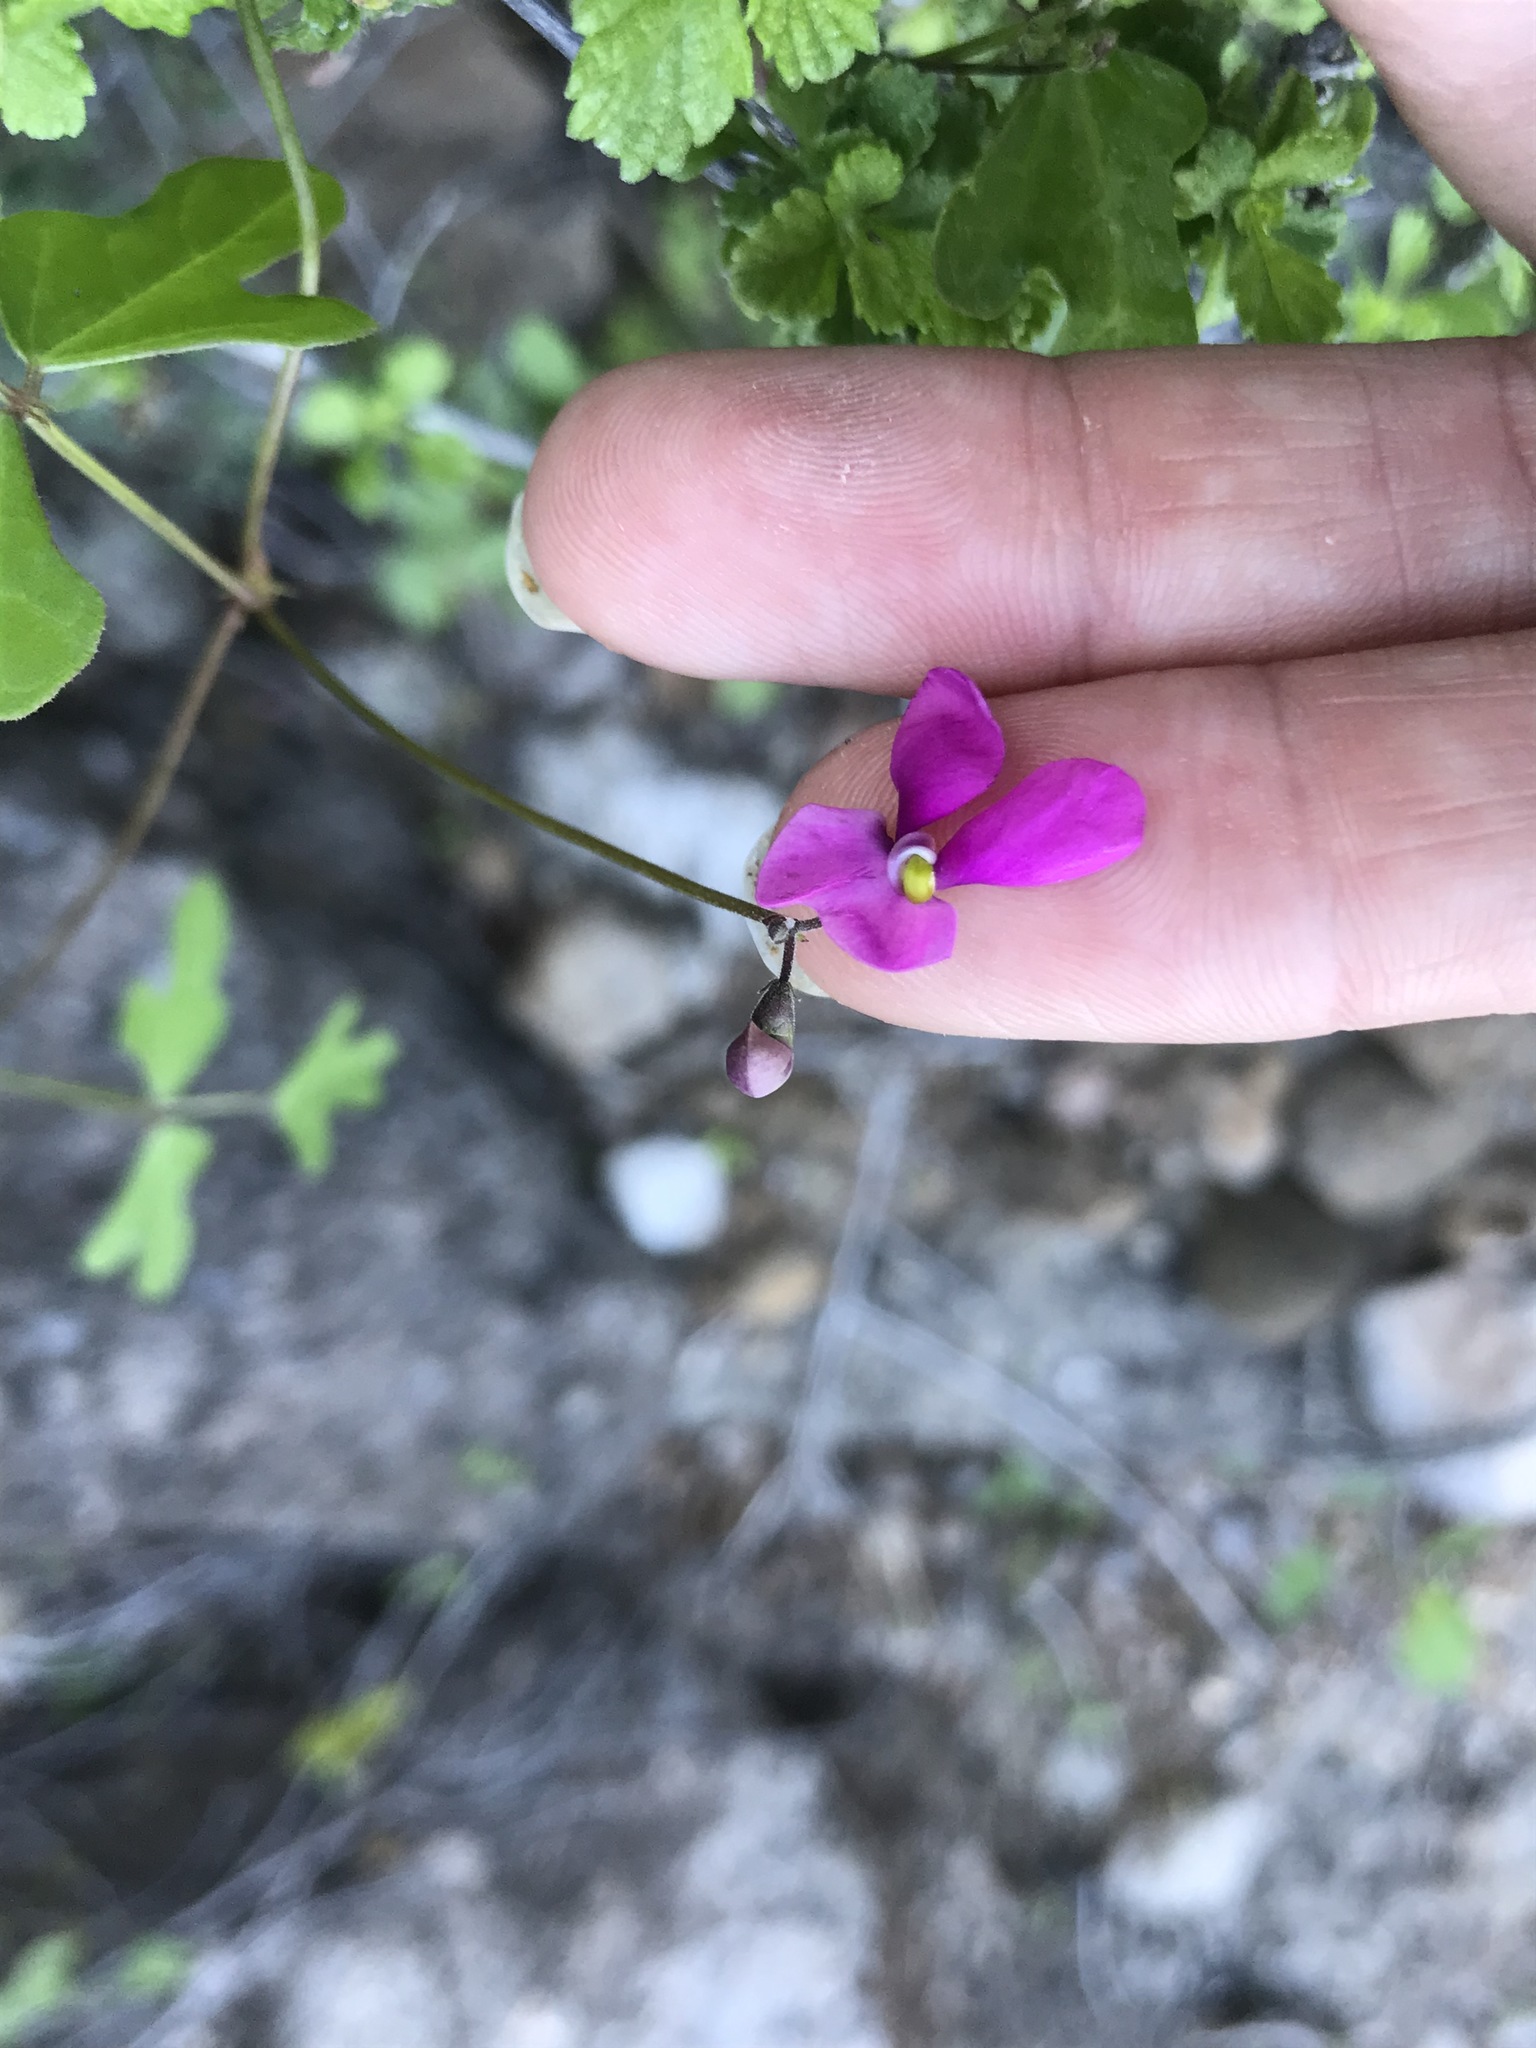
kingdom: Plantae
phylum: Tracheophyta
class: Magnoliopsida
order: Fabales
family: Fabaceae
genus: Phaseolus
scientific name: Phaseolus filiformis
